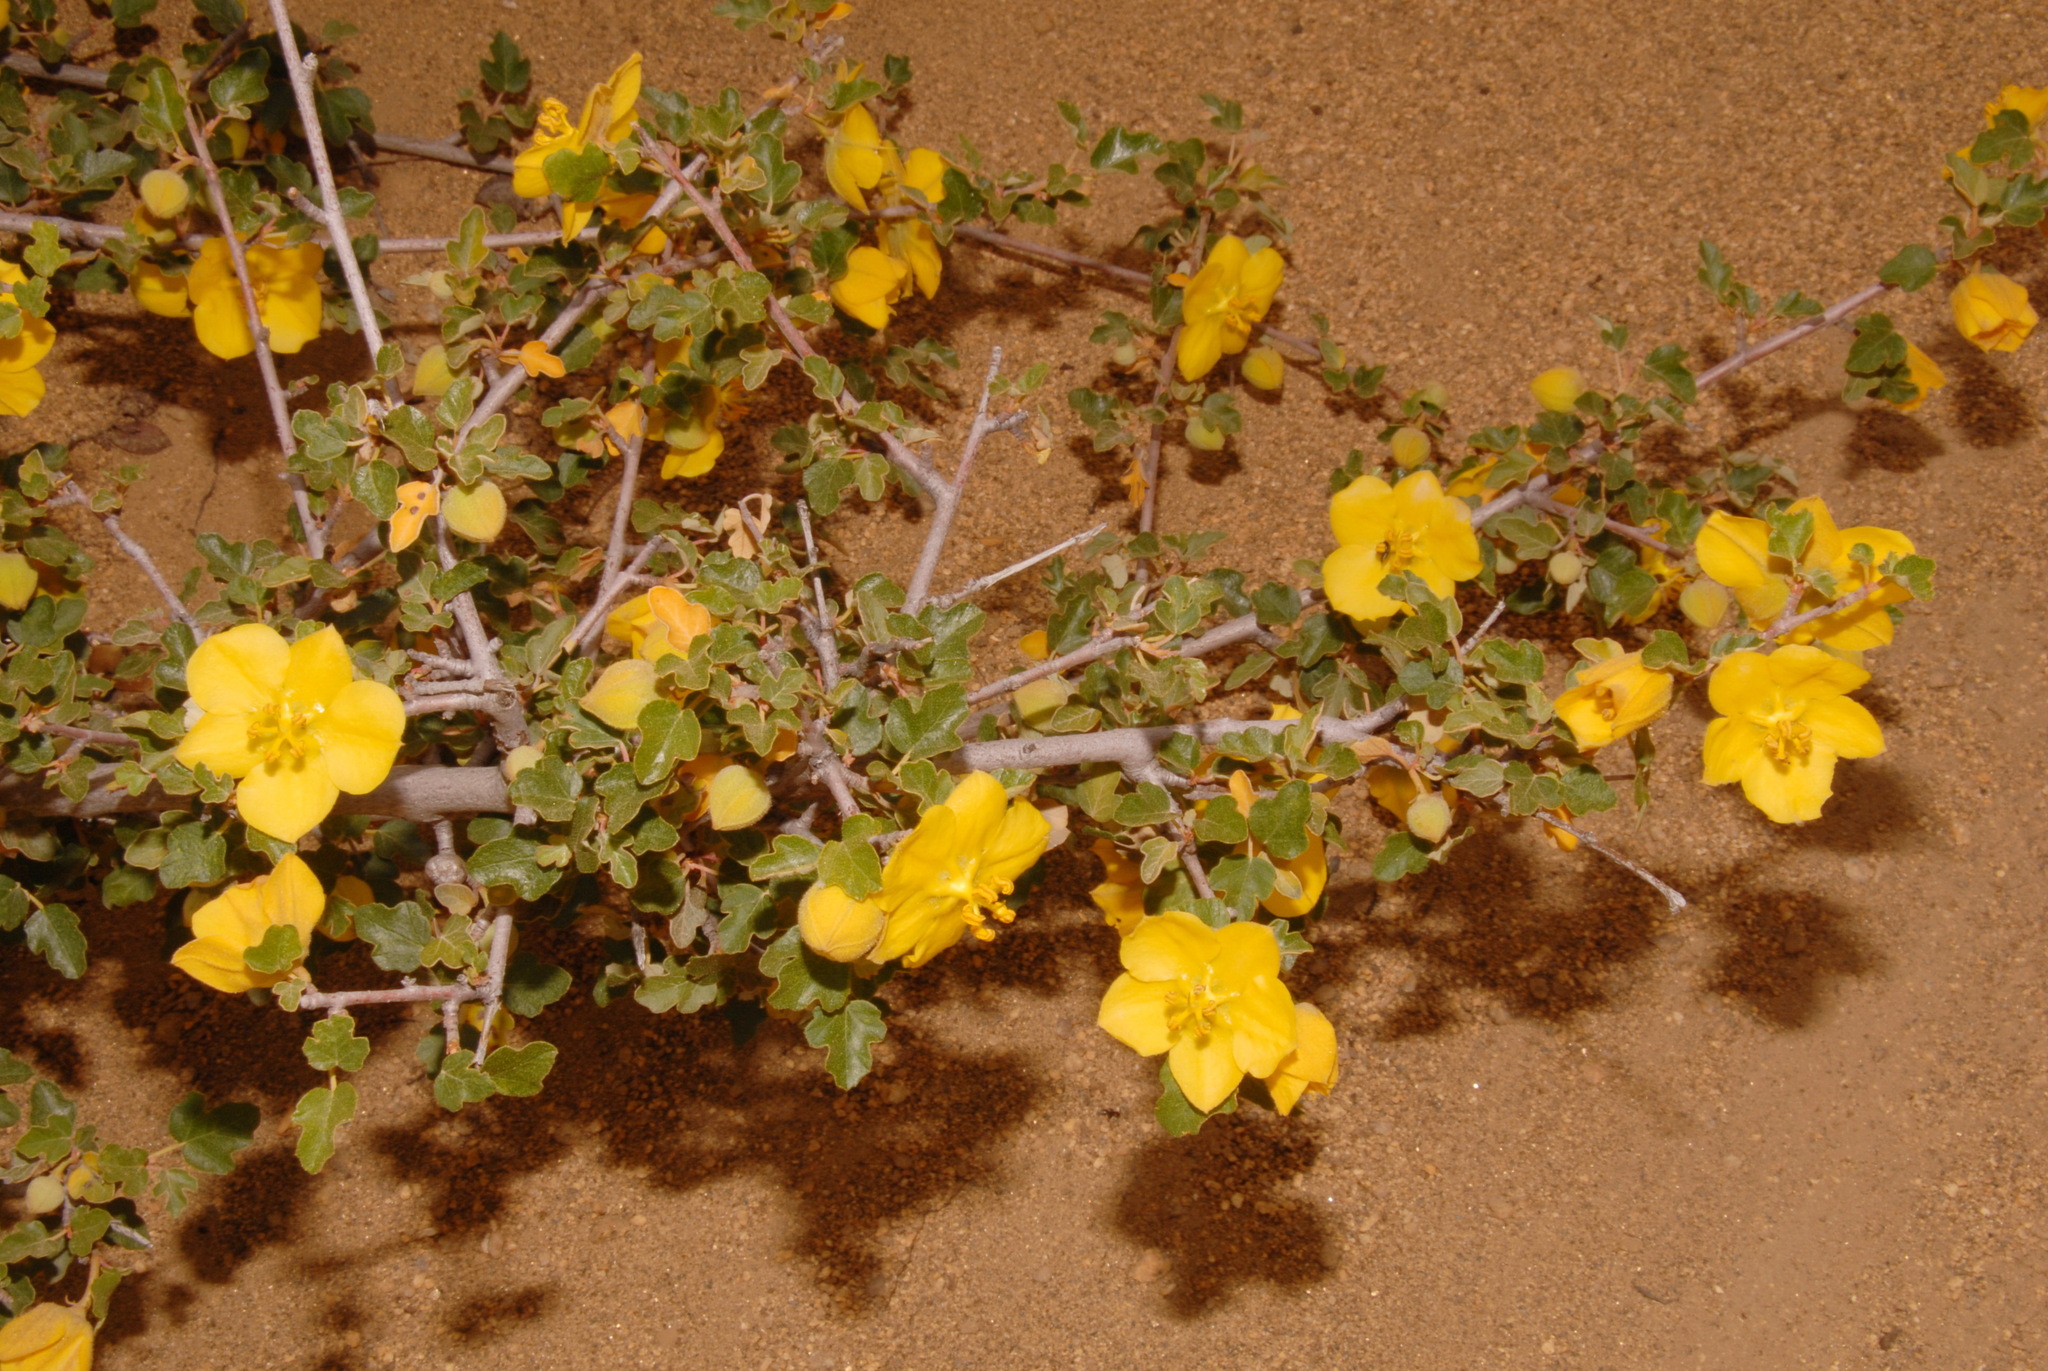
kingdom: Plantae
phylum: Tracheophyta
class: Magnoliopsida
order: Malvales
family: Malvaceae
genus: Fremontodendron
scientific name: Fremontodendron californicum
